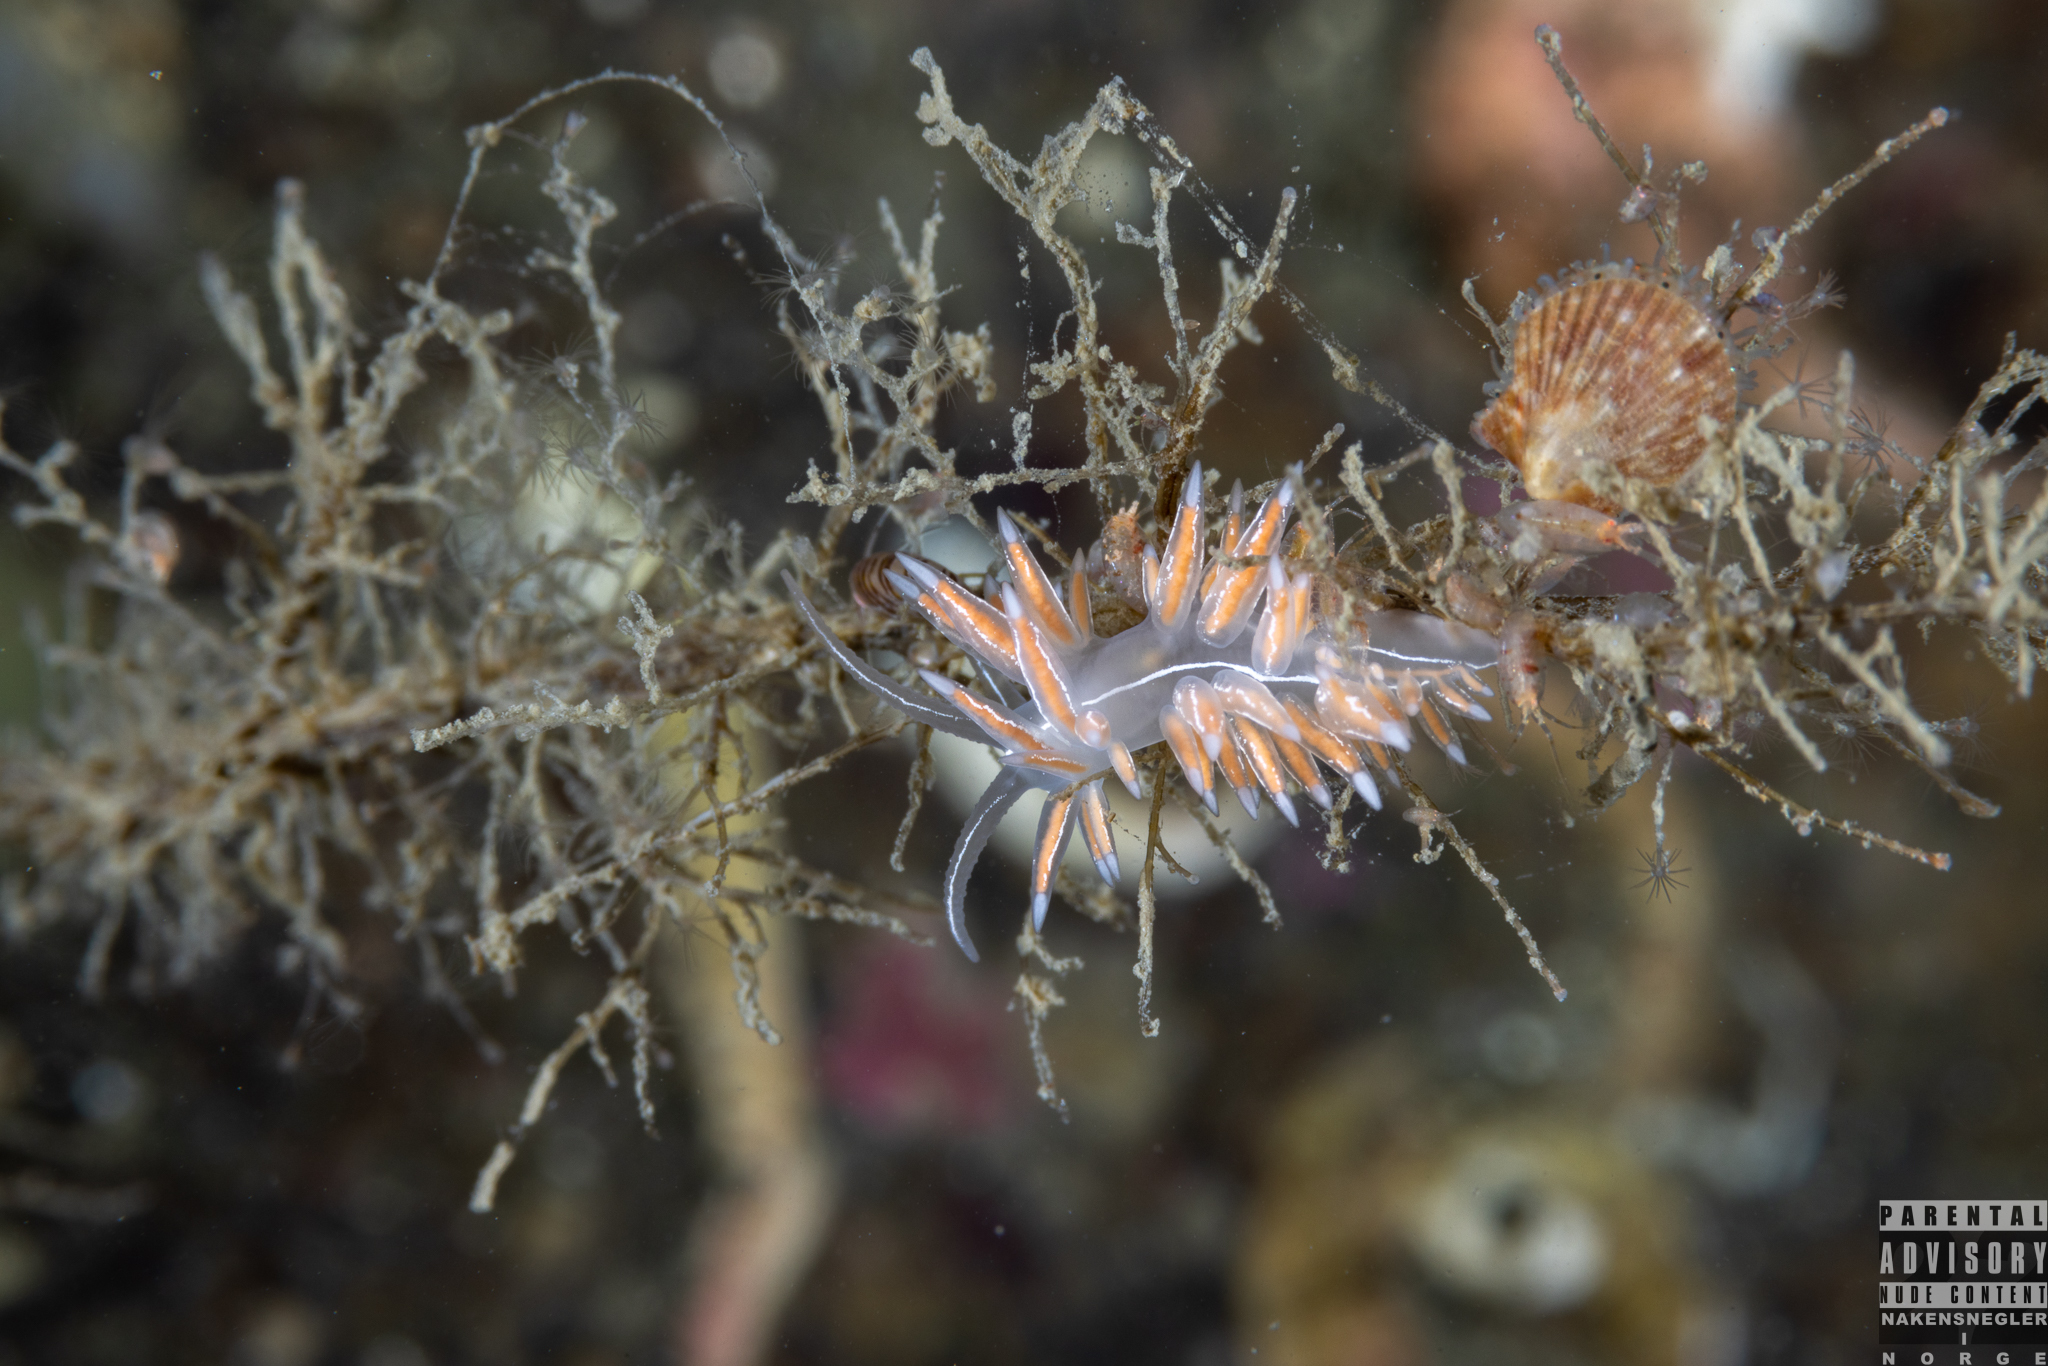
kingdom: Animalia
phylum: Mollusca
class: Gastropoda
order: Nudibranchia
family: Coryphellidae
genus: Coryphella
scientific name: Coryphella chriskaugei
